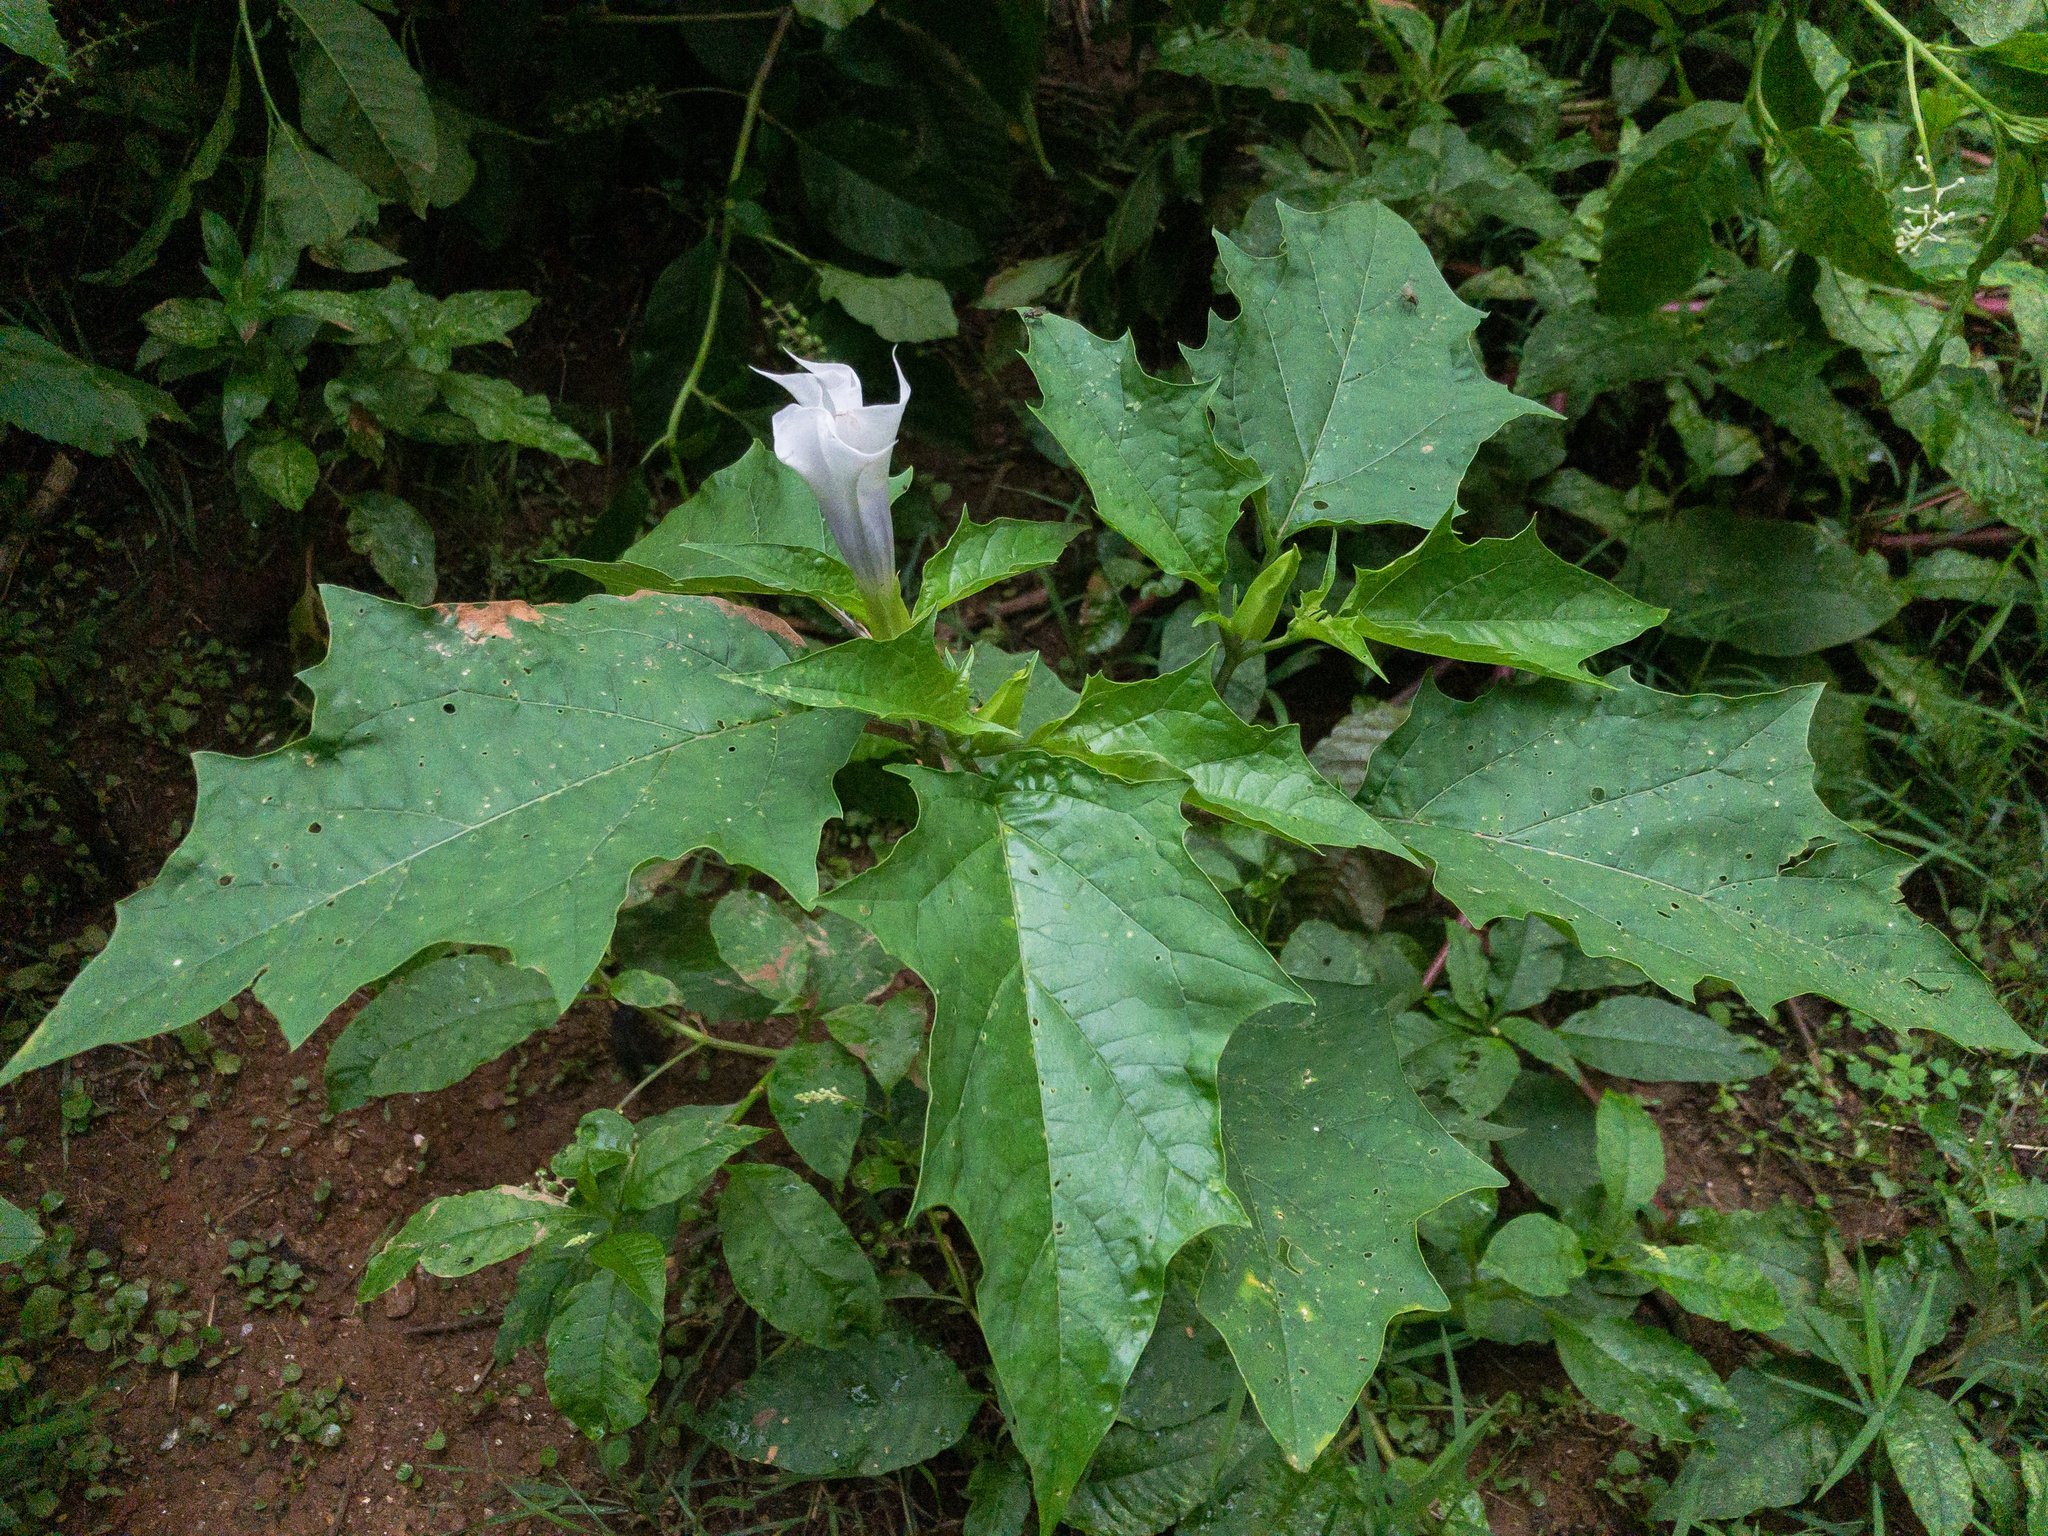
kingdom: Plantae
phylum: Tracheophyta
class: Magnoliopsida
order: Solanales
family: Solanaceae
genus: Datura
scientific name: Datura stramonium
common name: Thorn-apple
